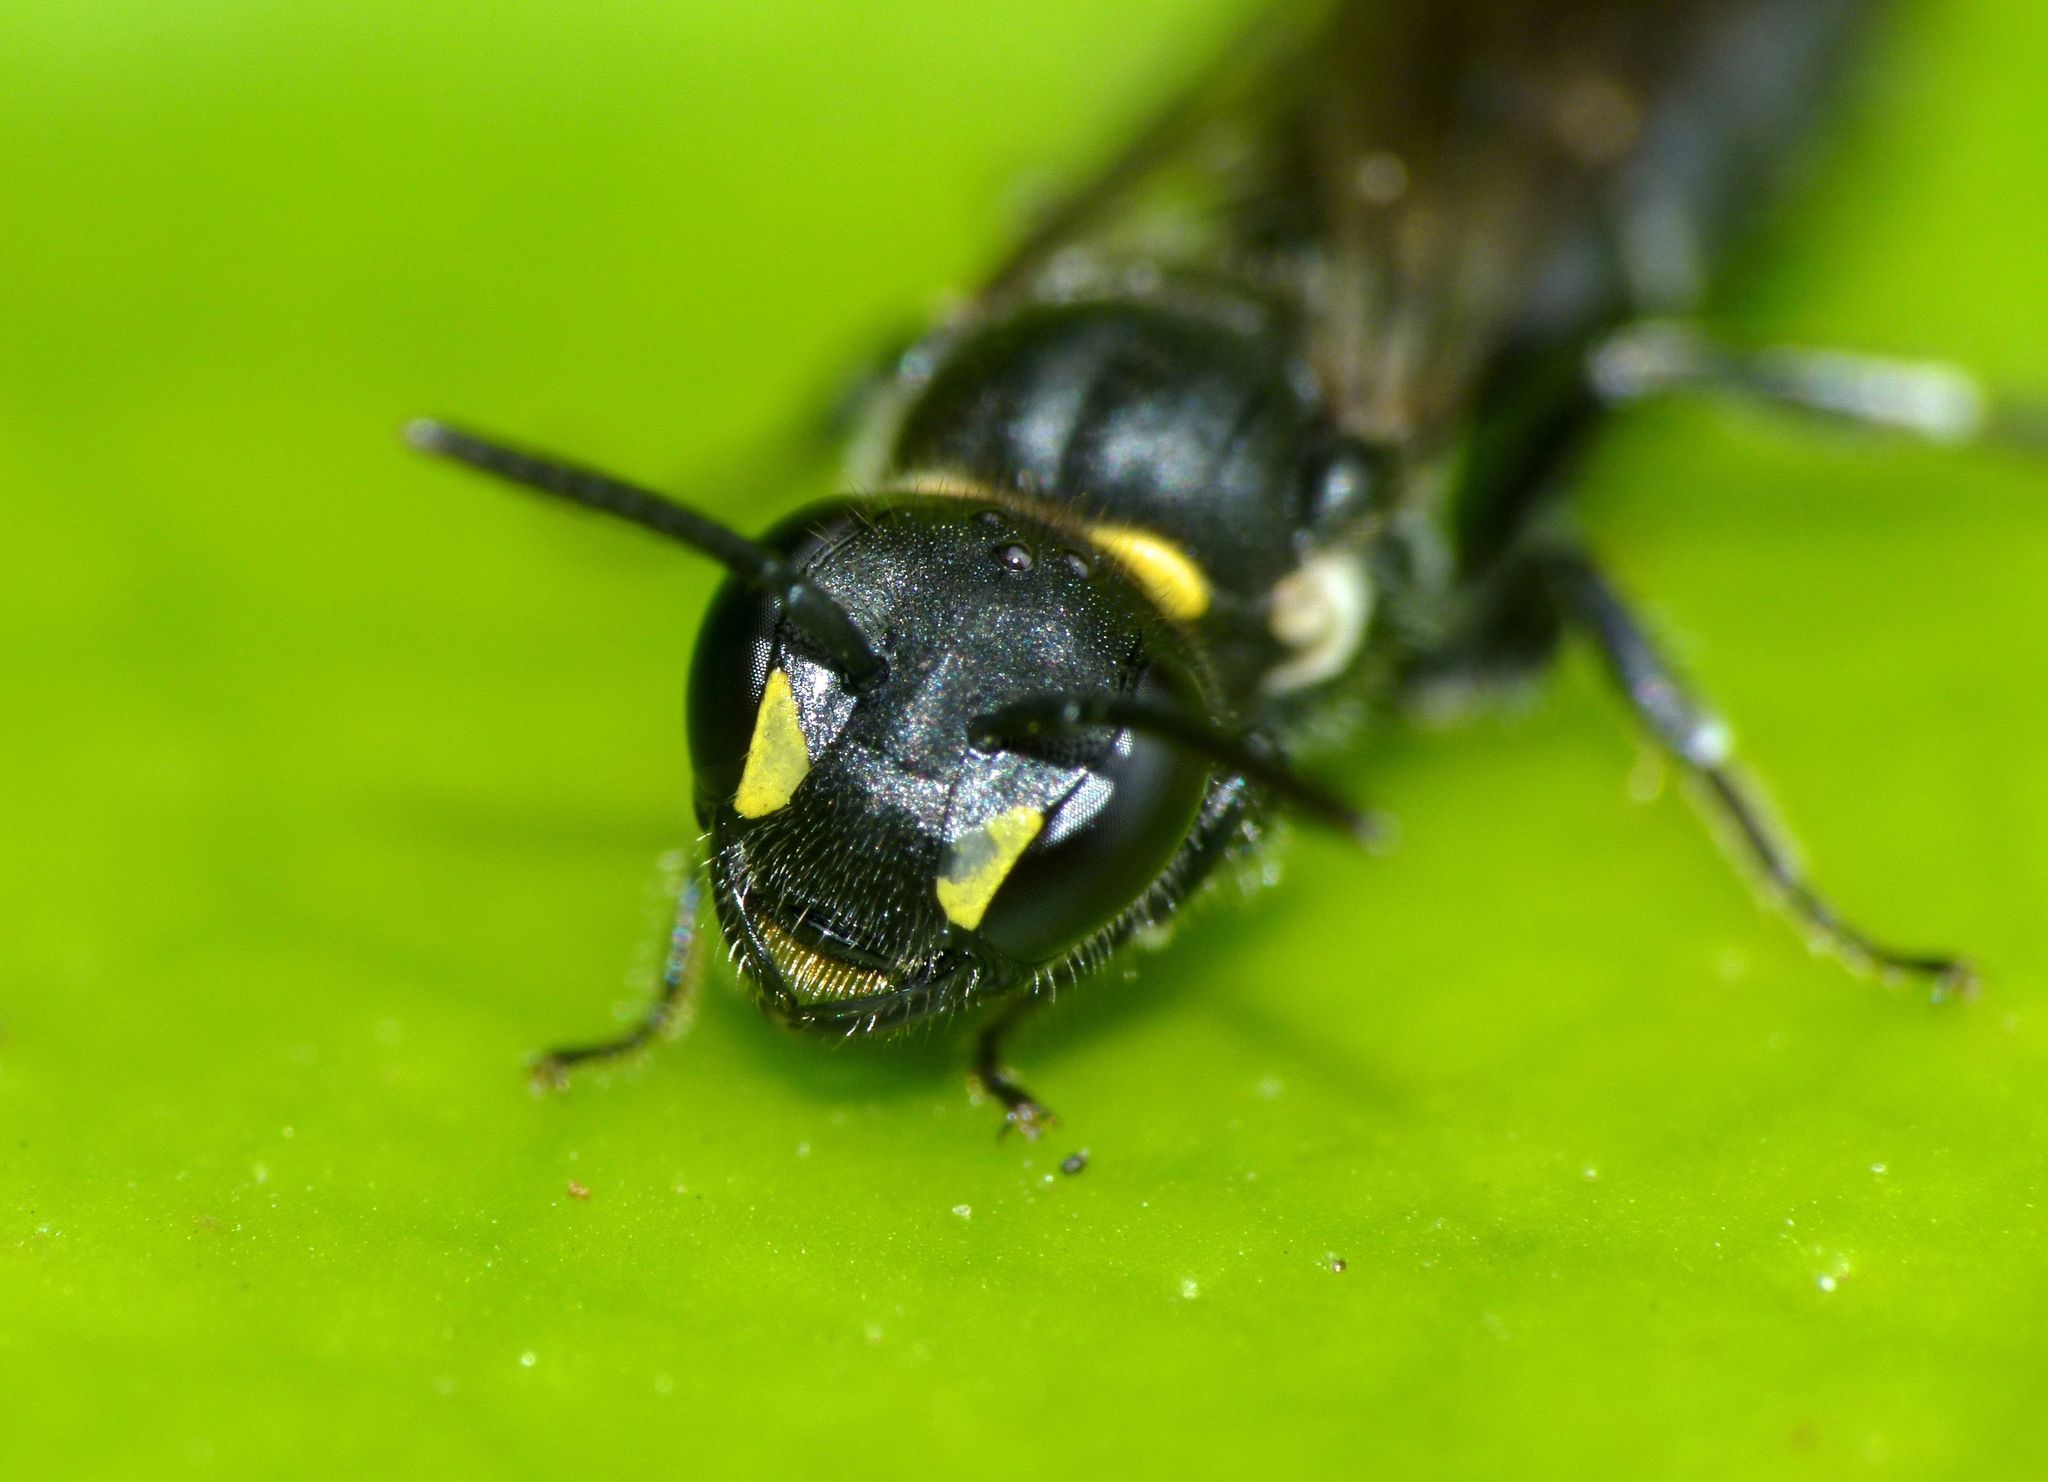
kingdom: Animalia
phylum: Arthropoda
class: Insecta
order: Hymenoptera
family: Colletidae
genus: Hylaeus
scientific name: Hylaeus relegatus
